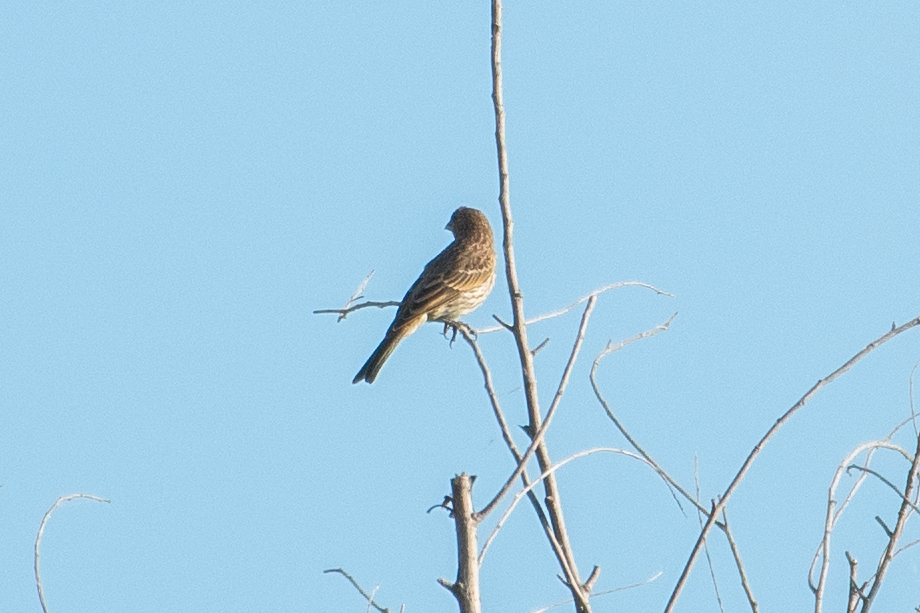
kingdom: Animalia
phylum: Chordata
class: Aves
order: Passeriformes
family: Fringillidae
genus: Haemorhous
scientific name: Haemorhous mexicanus
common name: House finch
